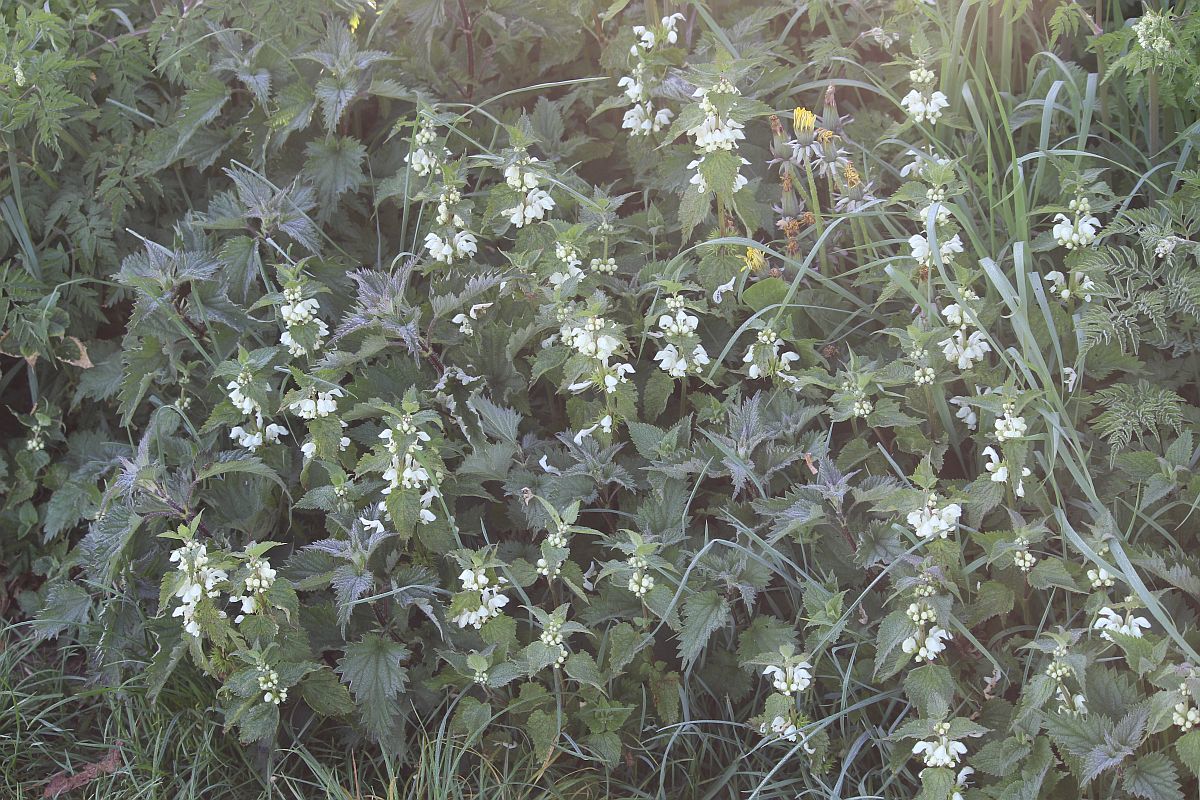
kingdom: Plantae
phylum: Tracheophyta
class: Magnoliopsida
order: Lamiales
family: Lamiaceae
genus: Lamium
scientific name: Lamium album
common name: White dead-nettle
